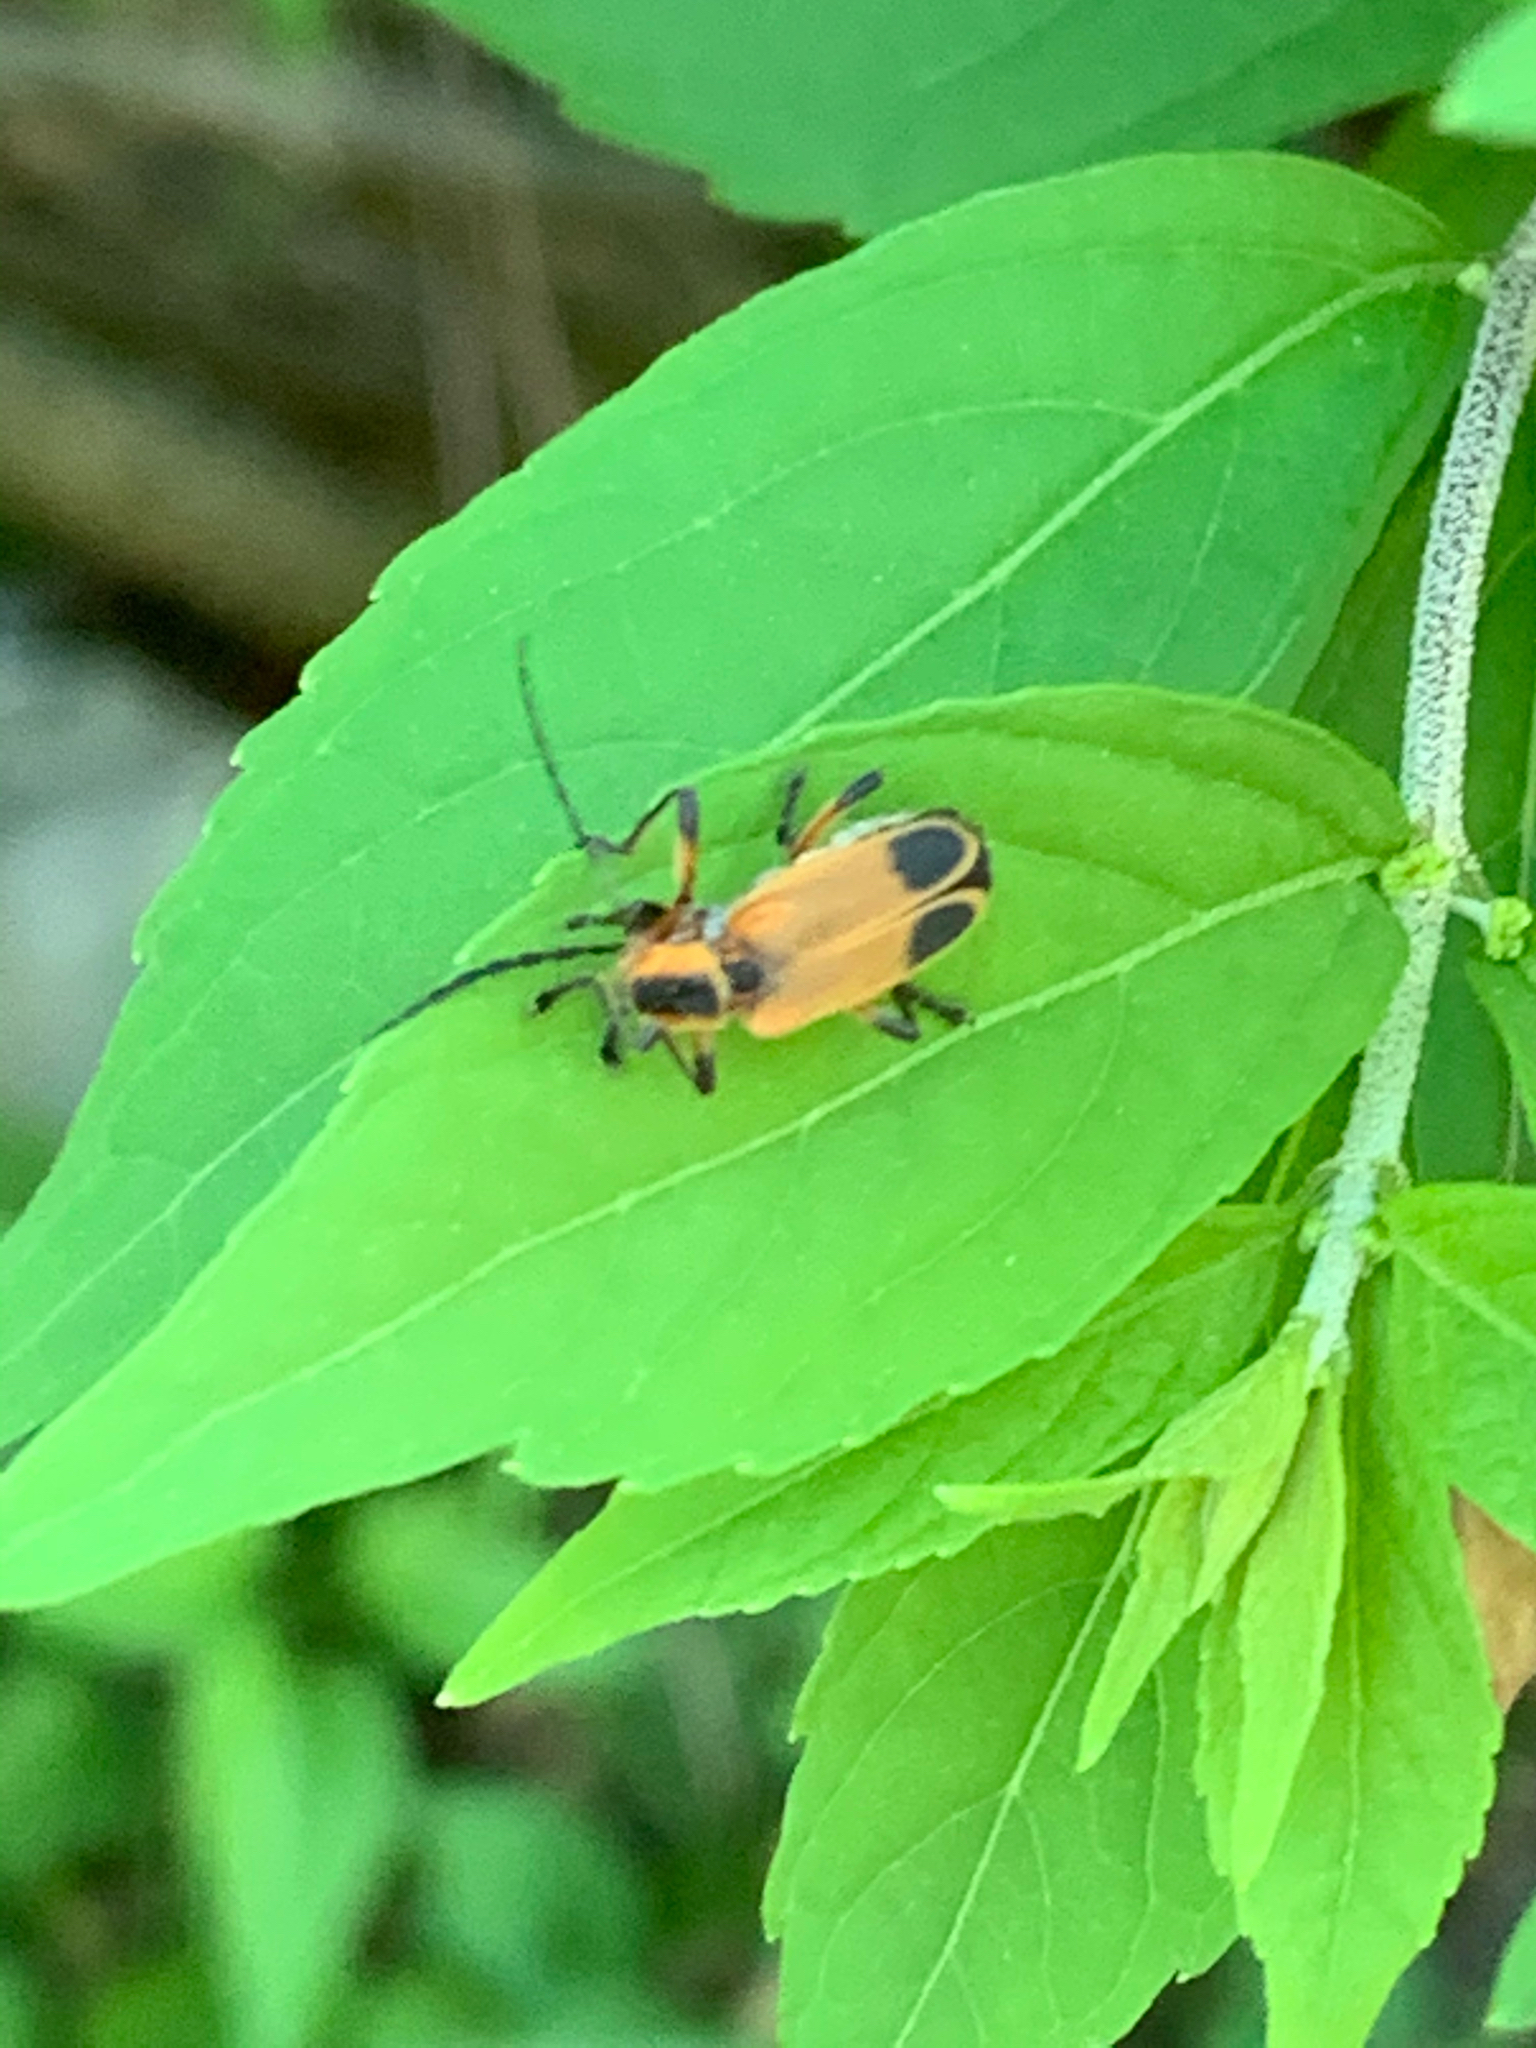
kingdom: Animalia
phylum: Arthropoda
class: Insecta
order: Coleoptera
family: Cantharidae
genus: Chauliognathus
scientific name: Chauliognathus marginatus
